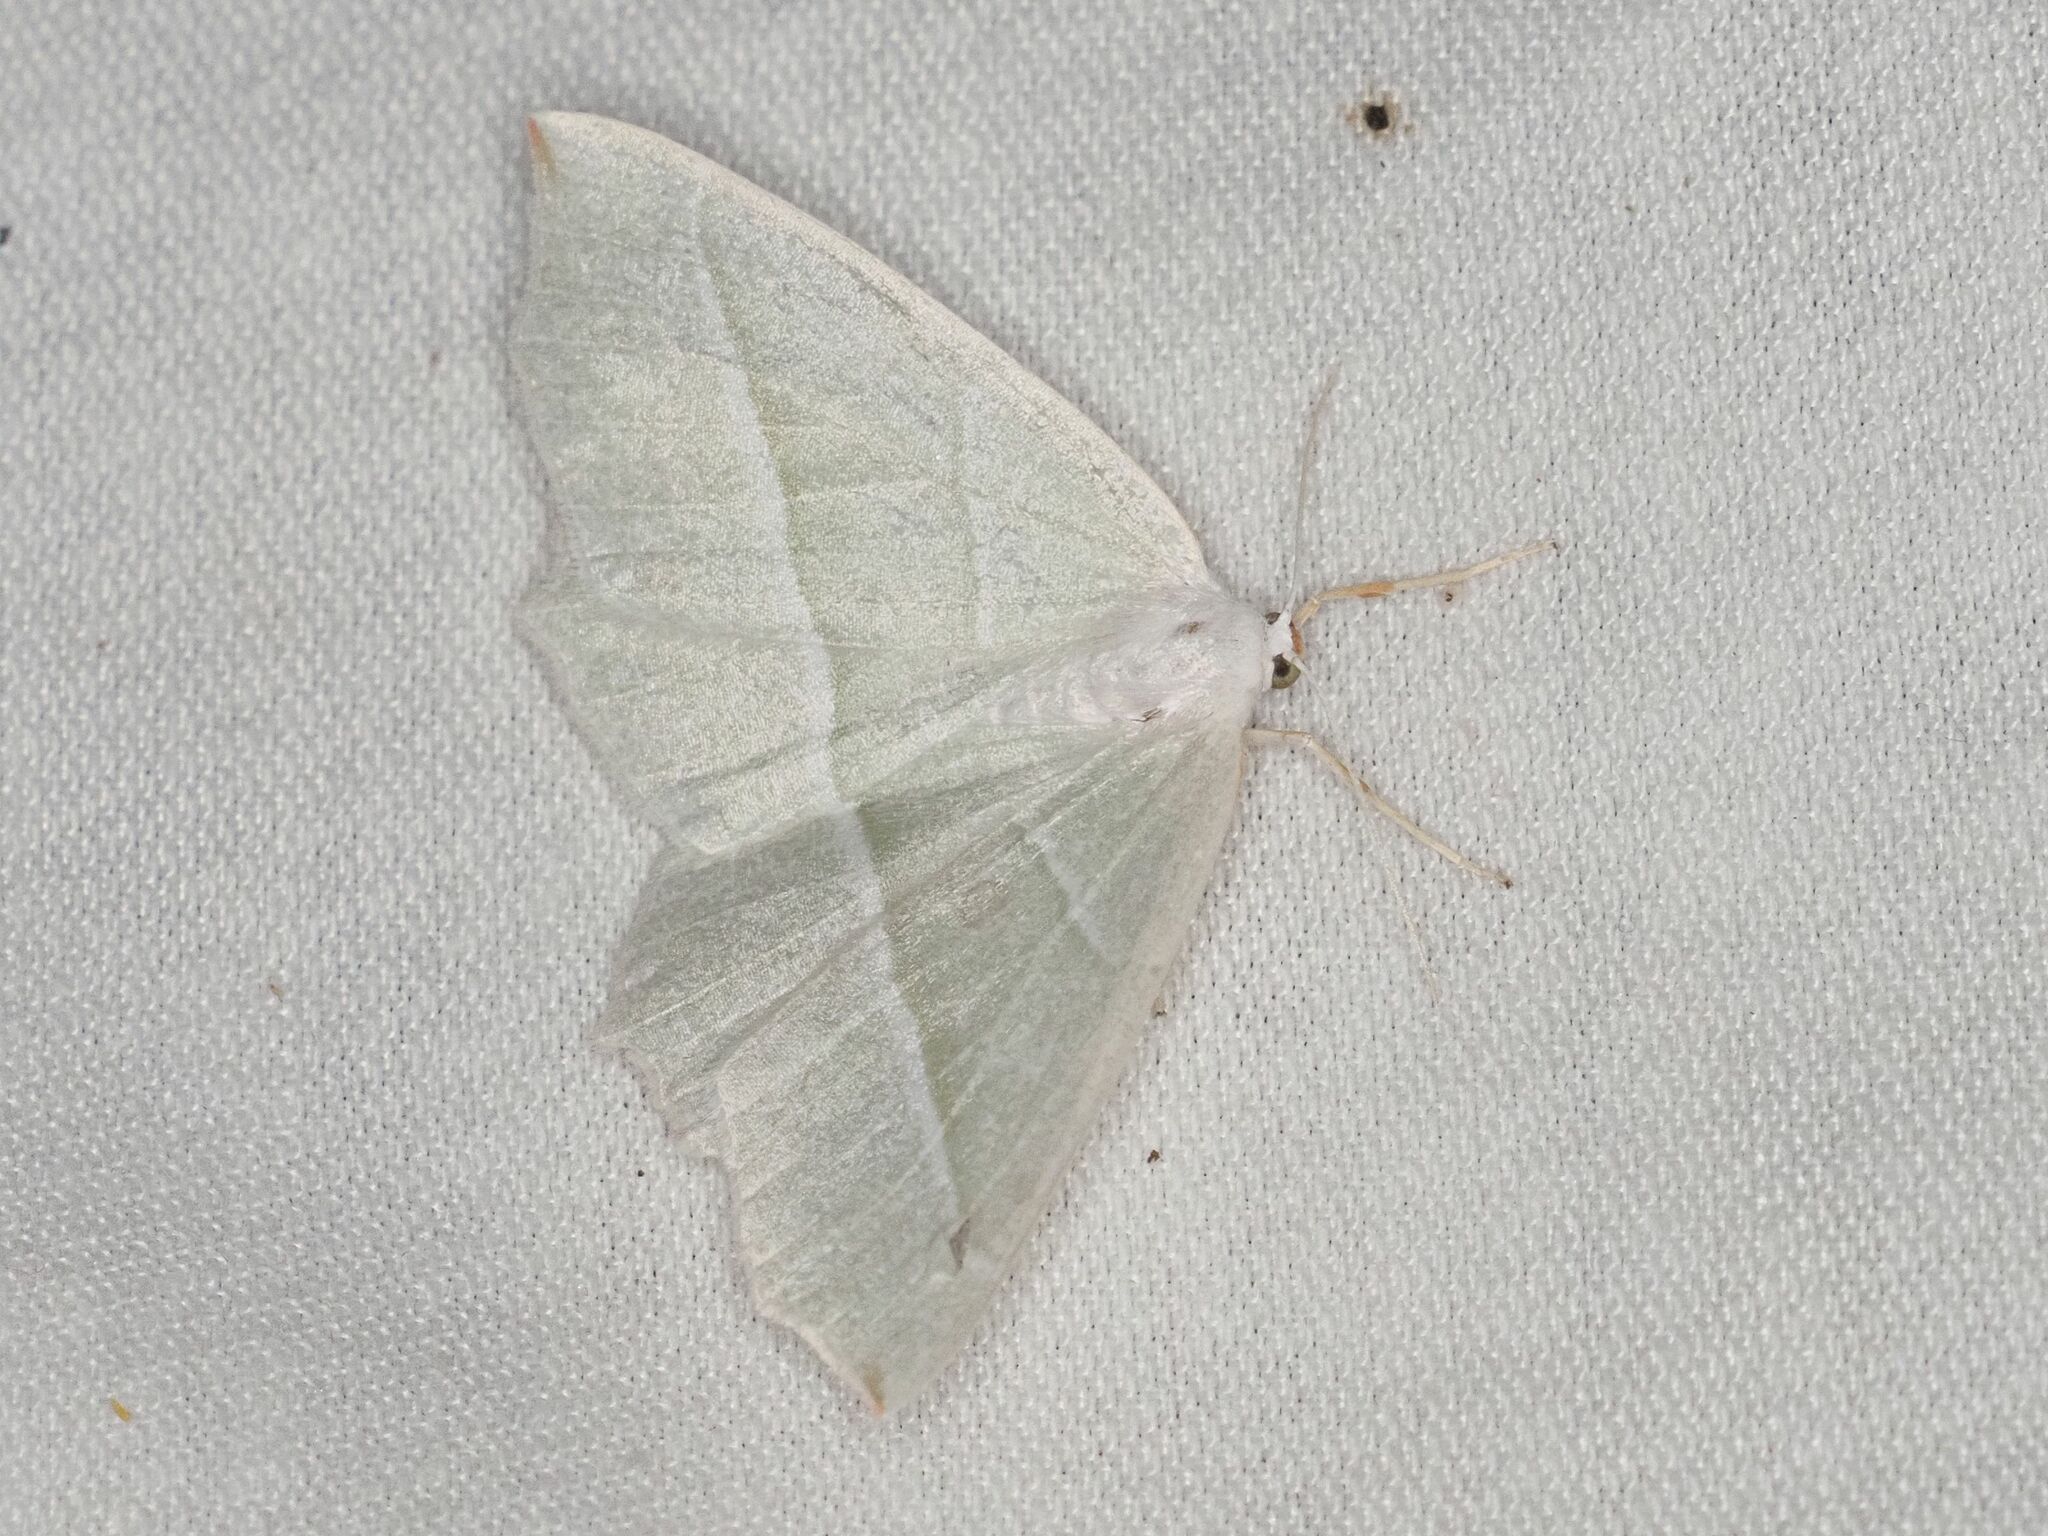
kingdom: Animalia
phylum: Arthropoda
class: Insecta
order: Lepidoptera
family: Geometridae
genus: Campaea
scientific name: Campaea margaritaria
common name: Light emerald
